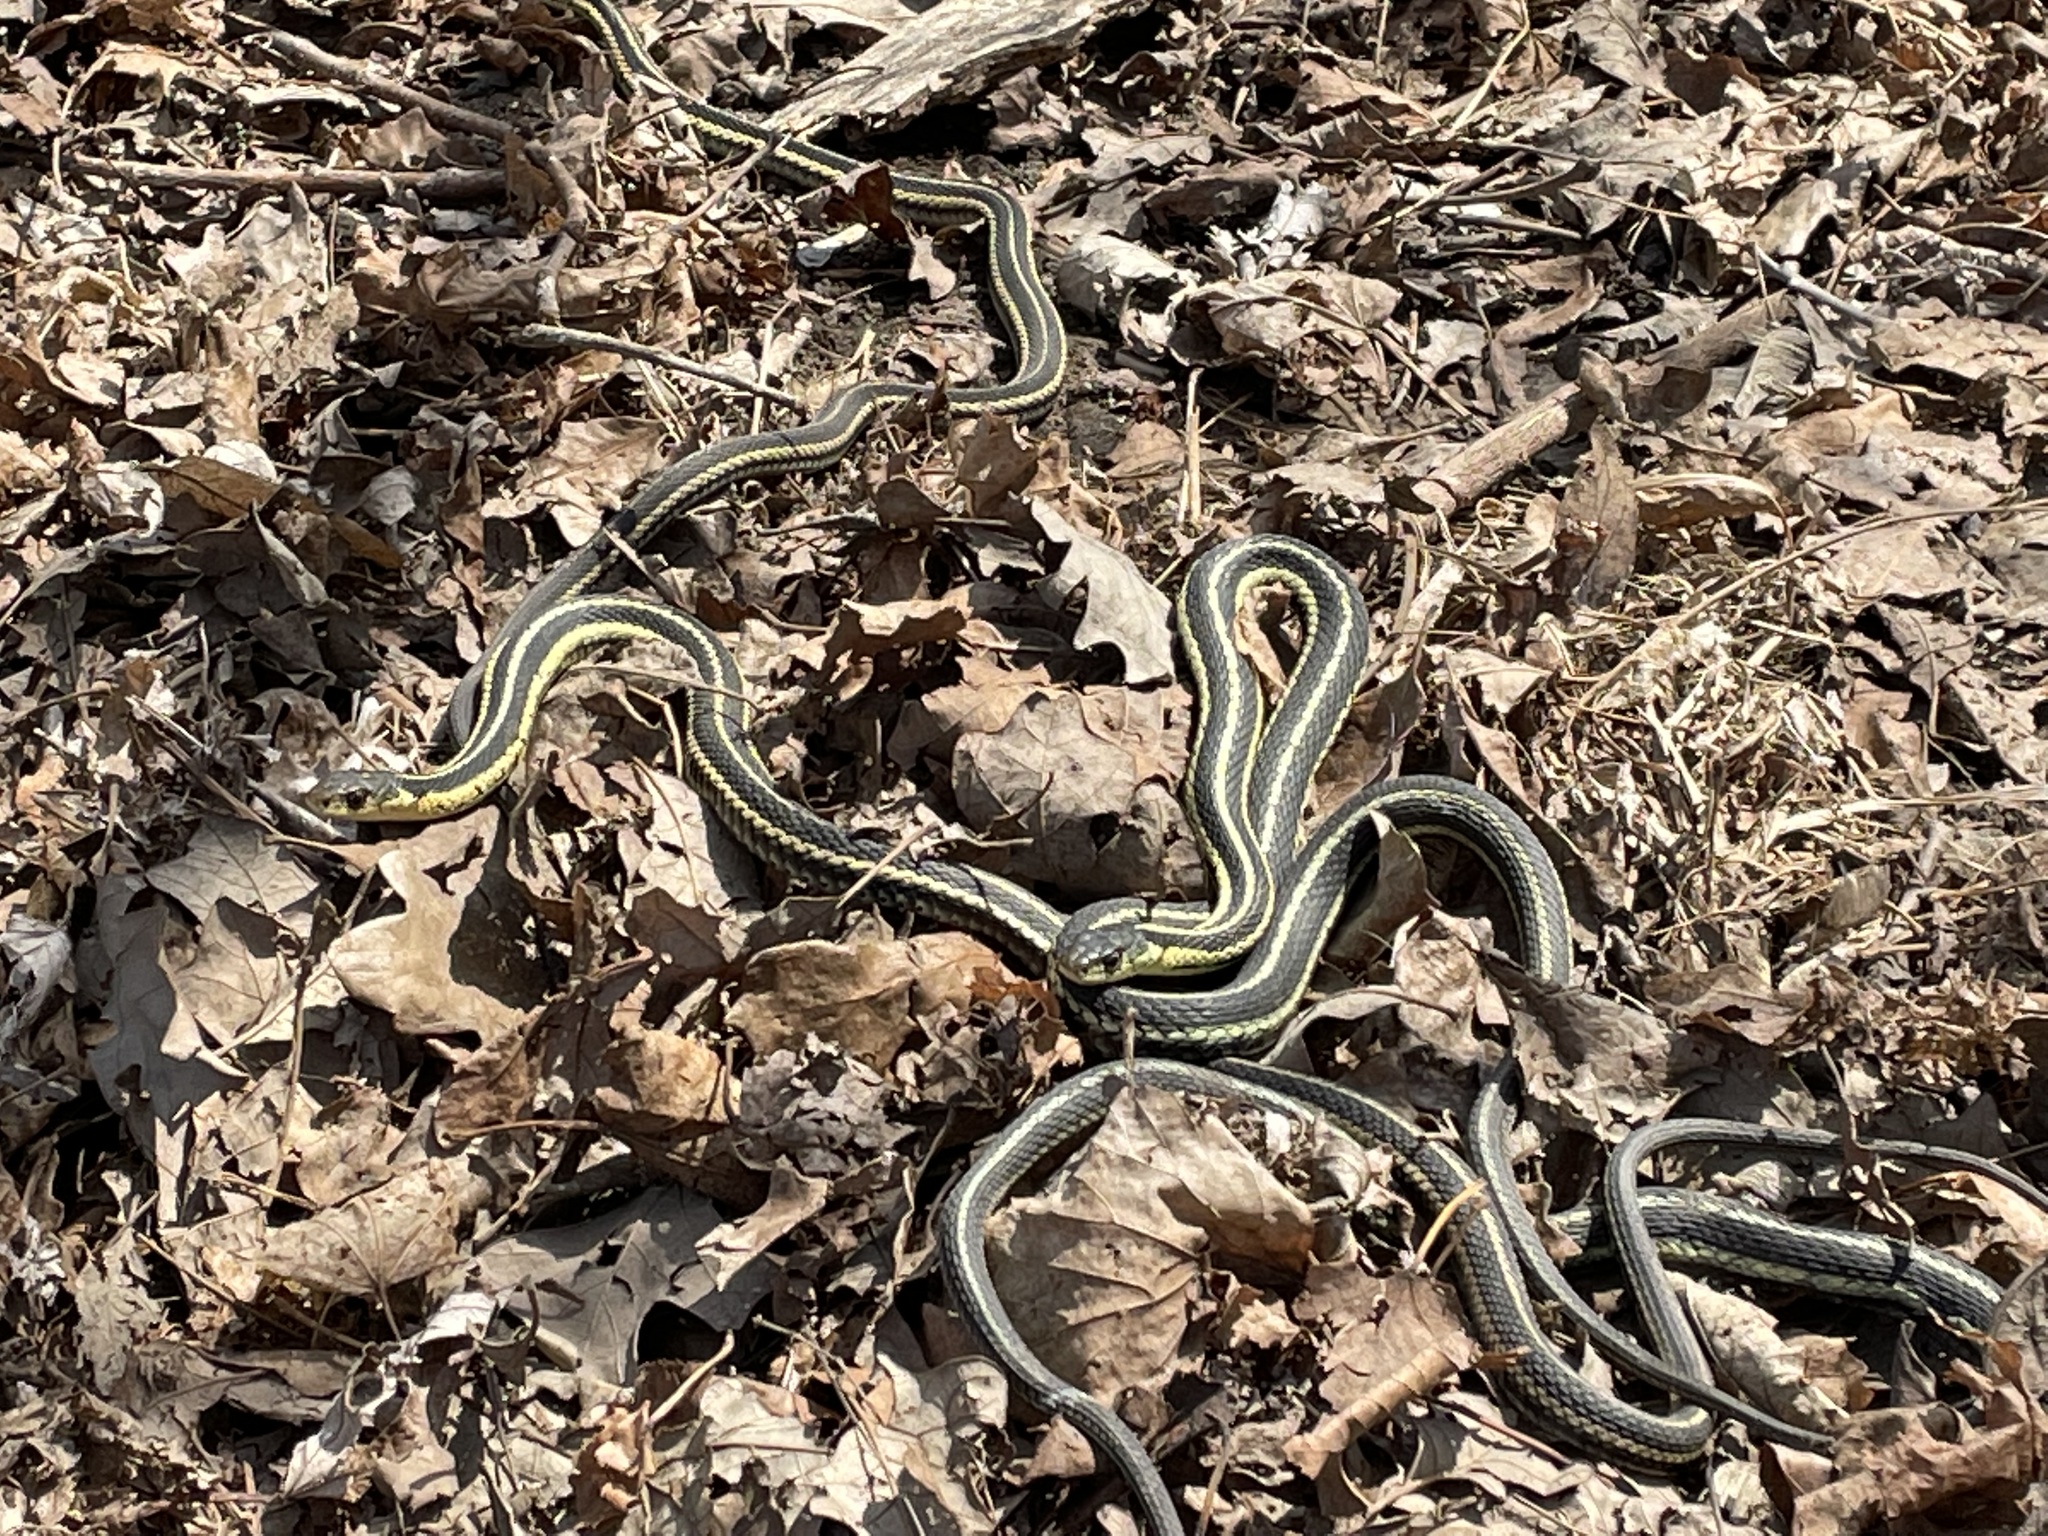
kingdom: Animalia
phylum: Chordata
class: Squamata
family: Colubridae
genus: Thamnophis
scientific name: Thamnophis sirtalis
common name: Common garter snake
